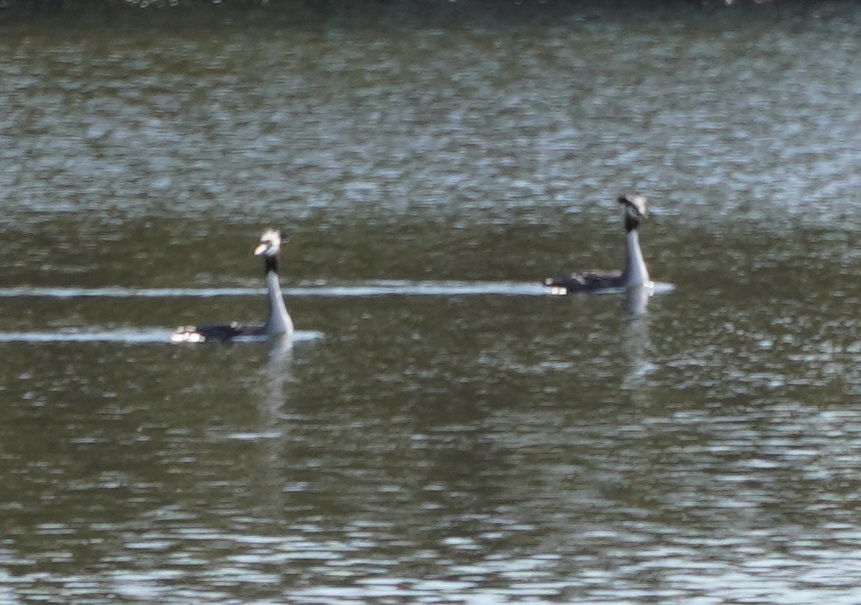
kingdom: Animalia
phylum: Chordata
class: Aves
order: Podicipediformes
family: Podicipedidae
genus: Podiceps
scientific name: Podiceps cristatus
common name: Great crested grebe
